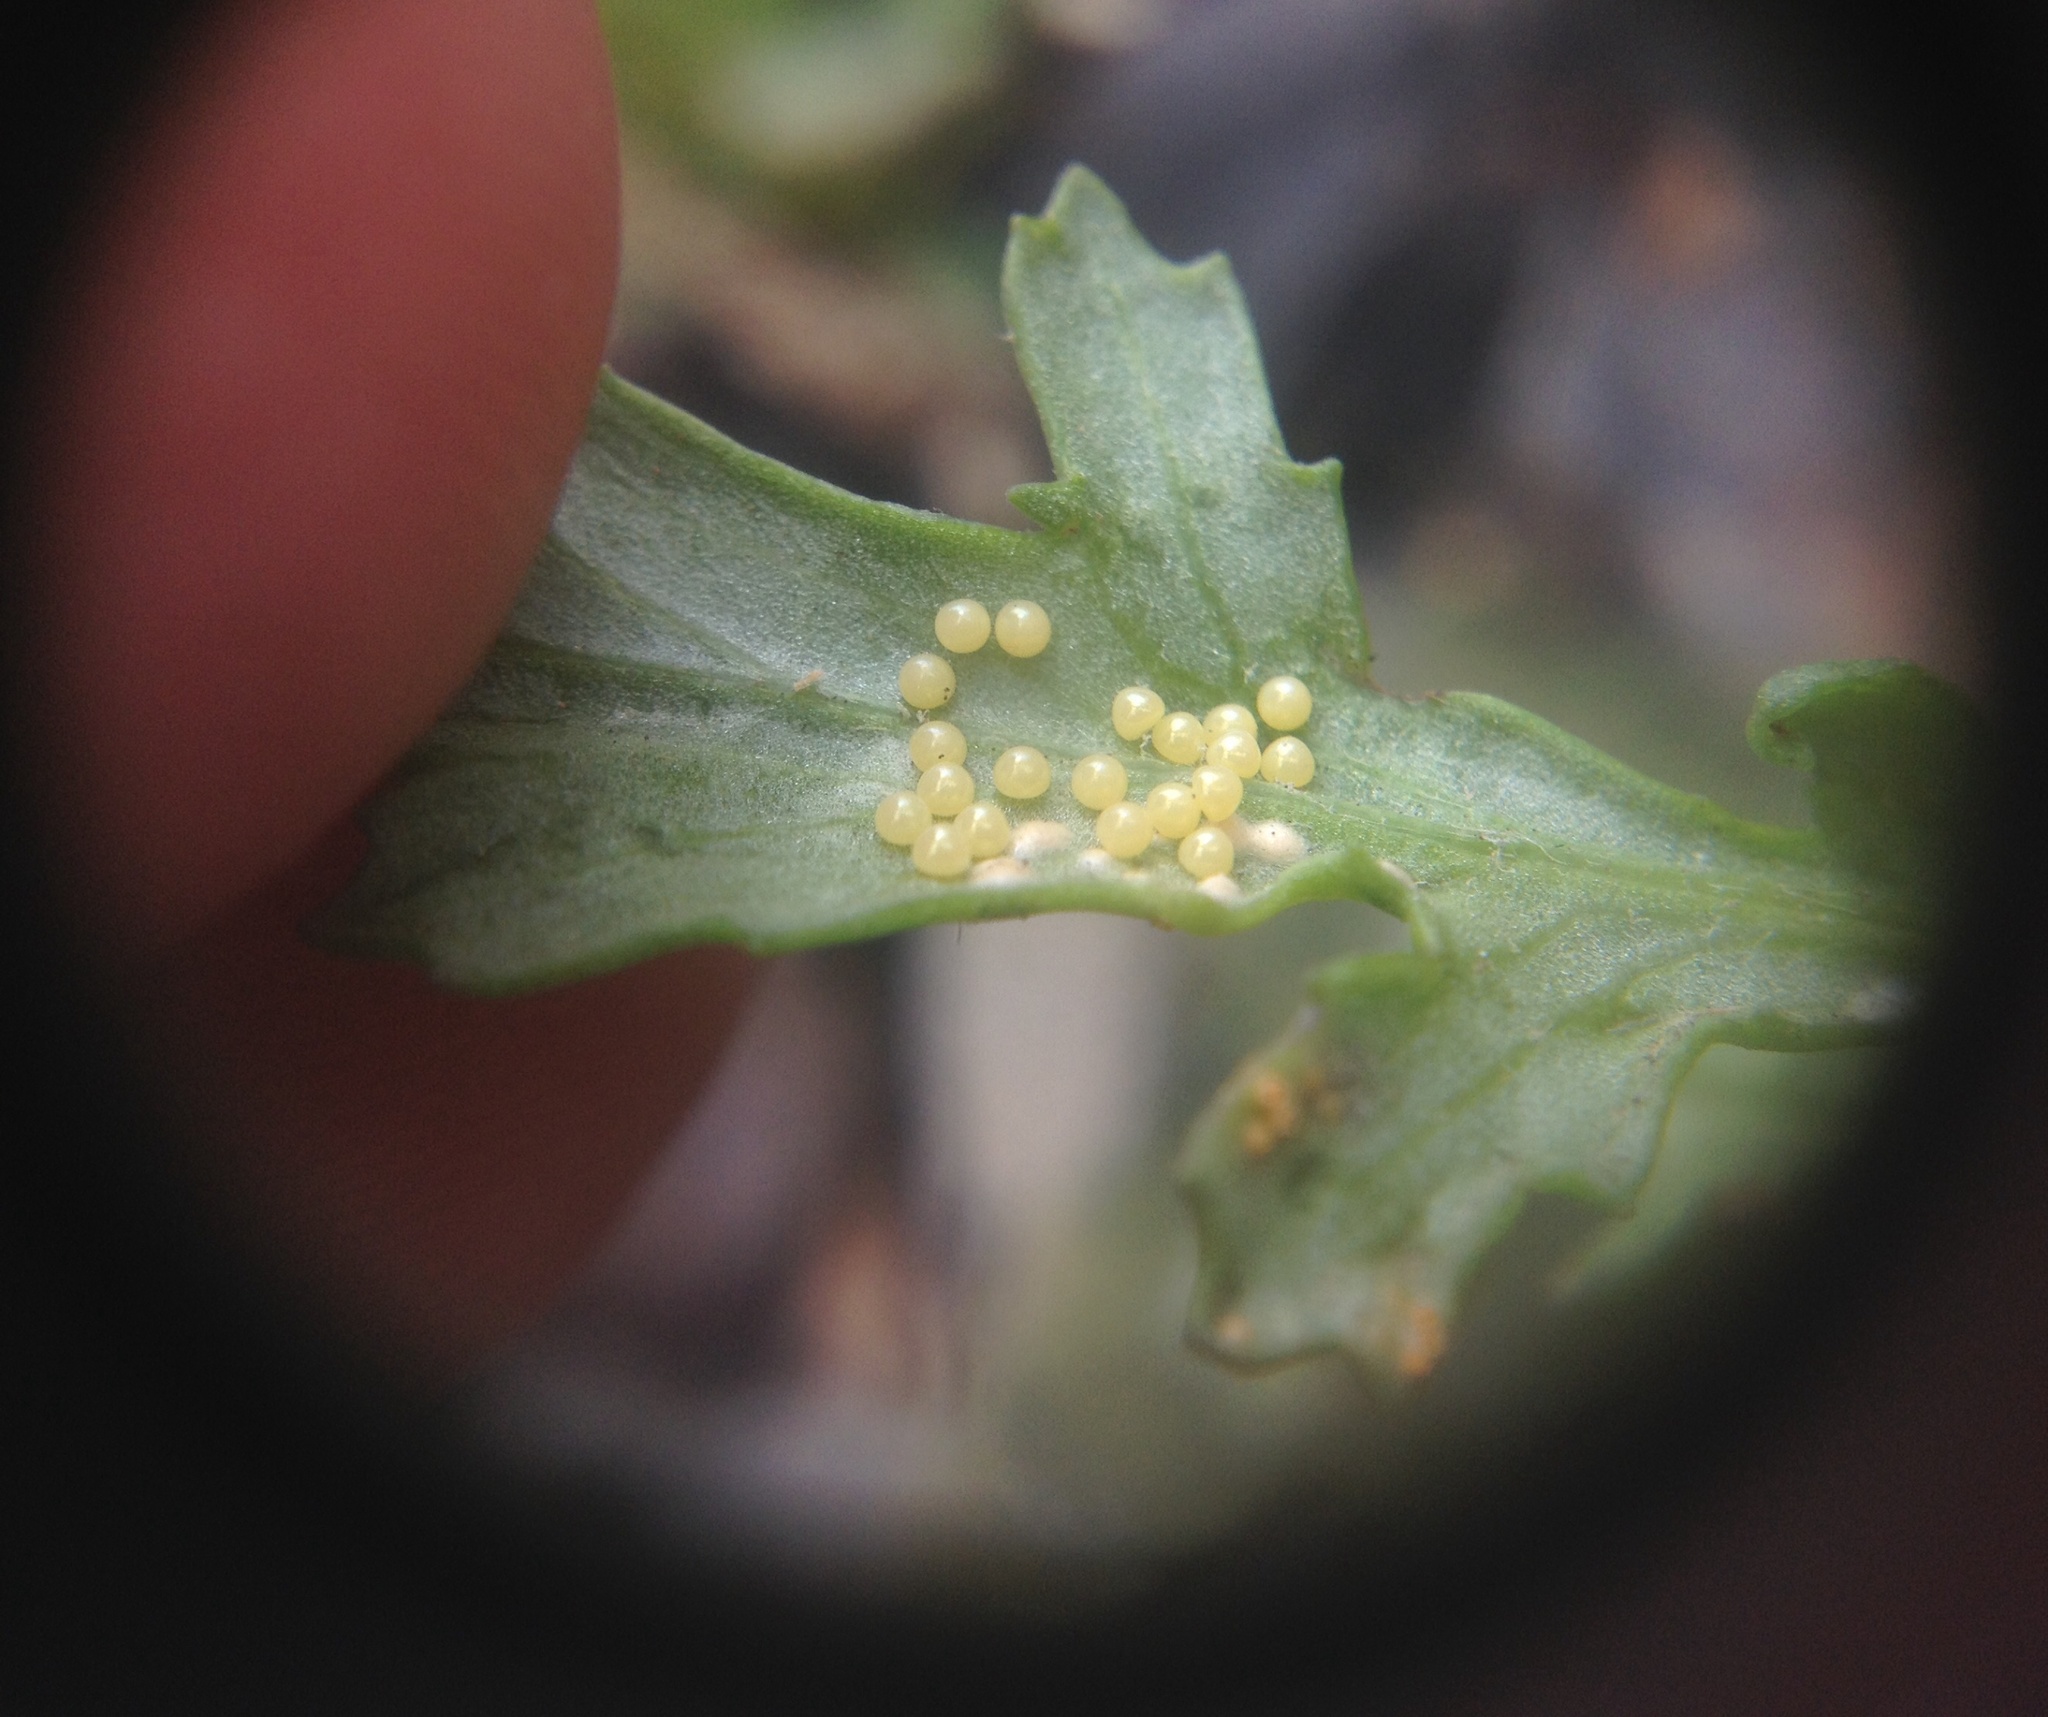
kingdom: Animalia
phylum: Arthropoda
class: Insecta
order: Lepidoptera
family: Erebidae
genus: Nyctemera
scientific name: Nyctemera annulatum
